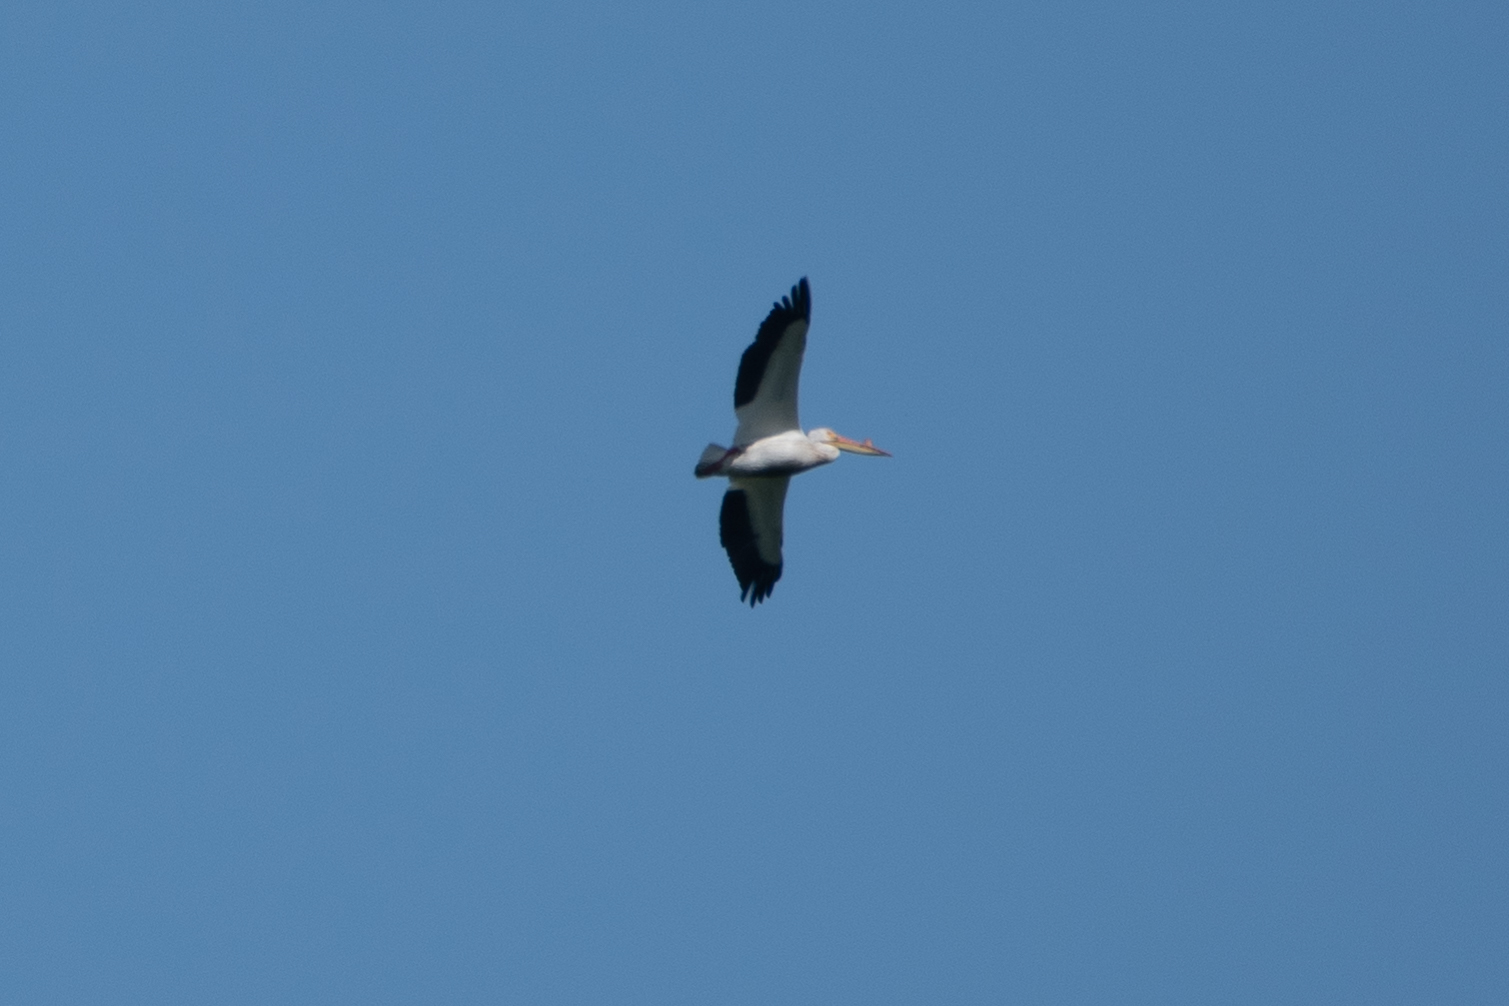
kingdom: Animalia
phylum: Chordata
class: Aves
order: Pelecaniformes
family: Pelecanidae
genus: Pelecanus
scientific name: Pelecanus erythrorhynchos
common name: American white pelican
